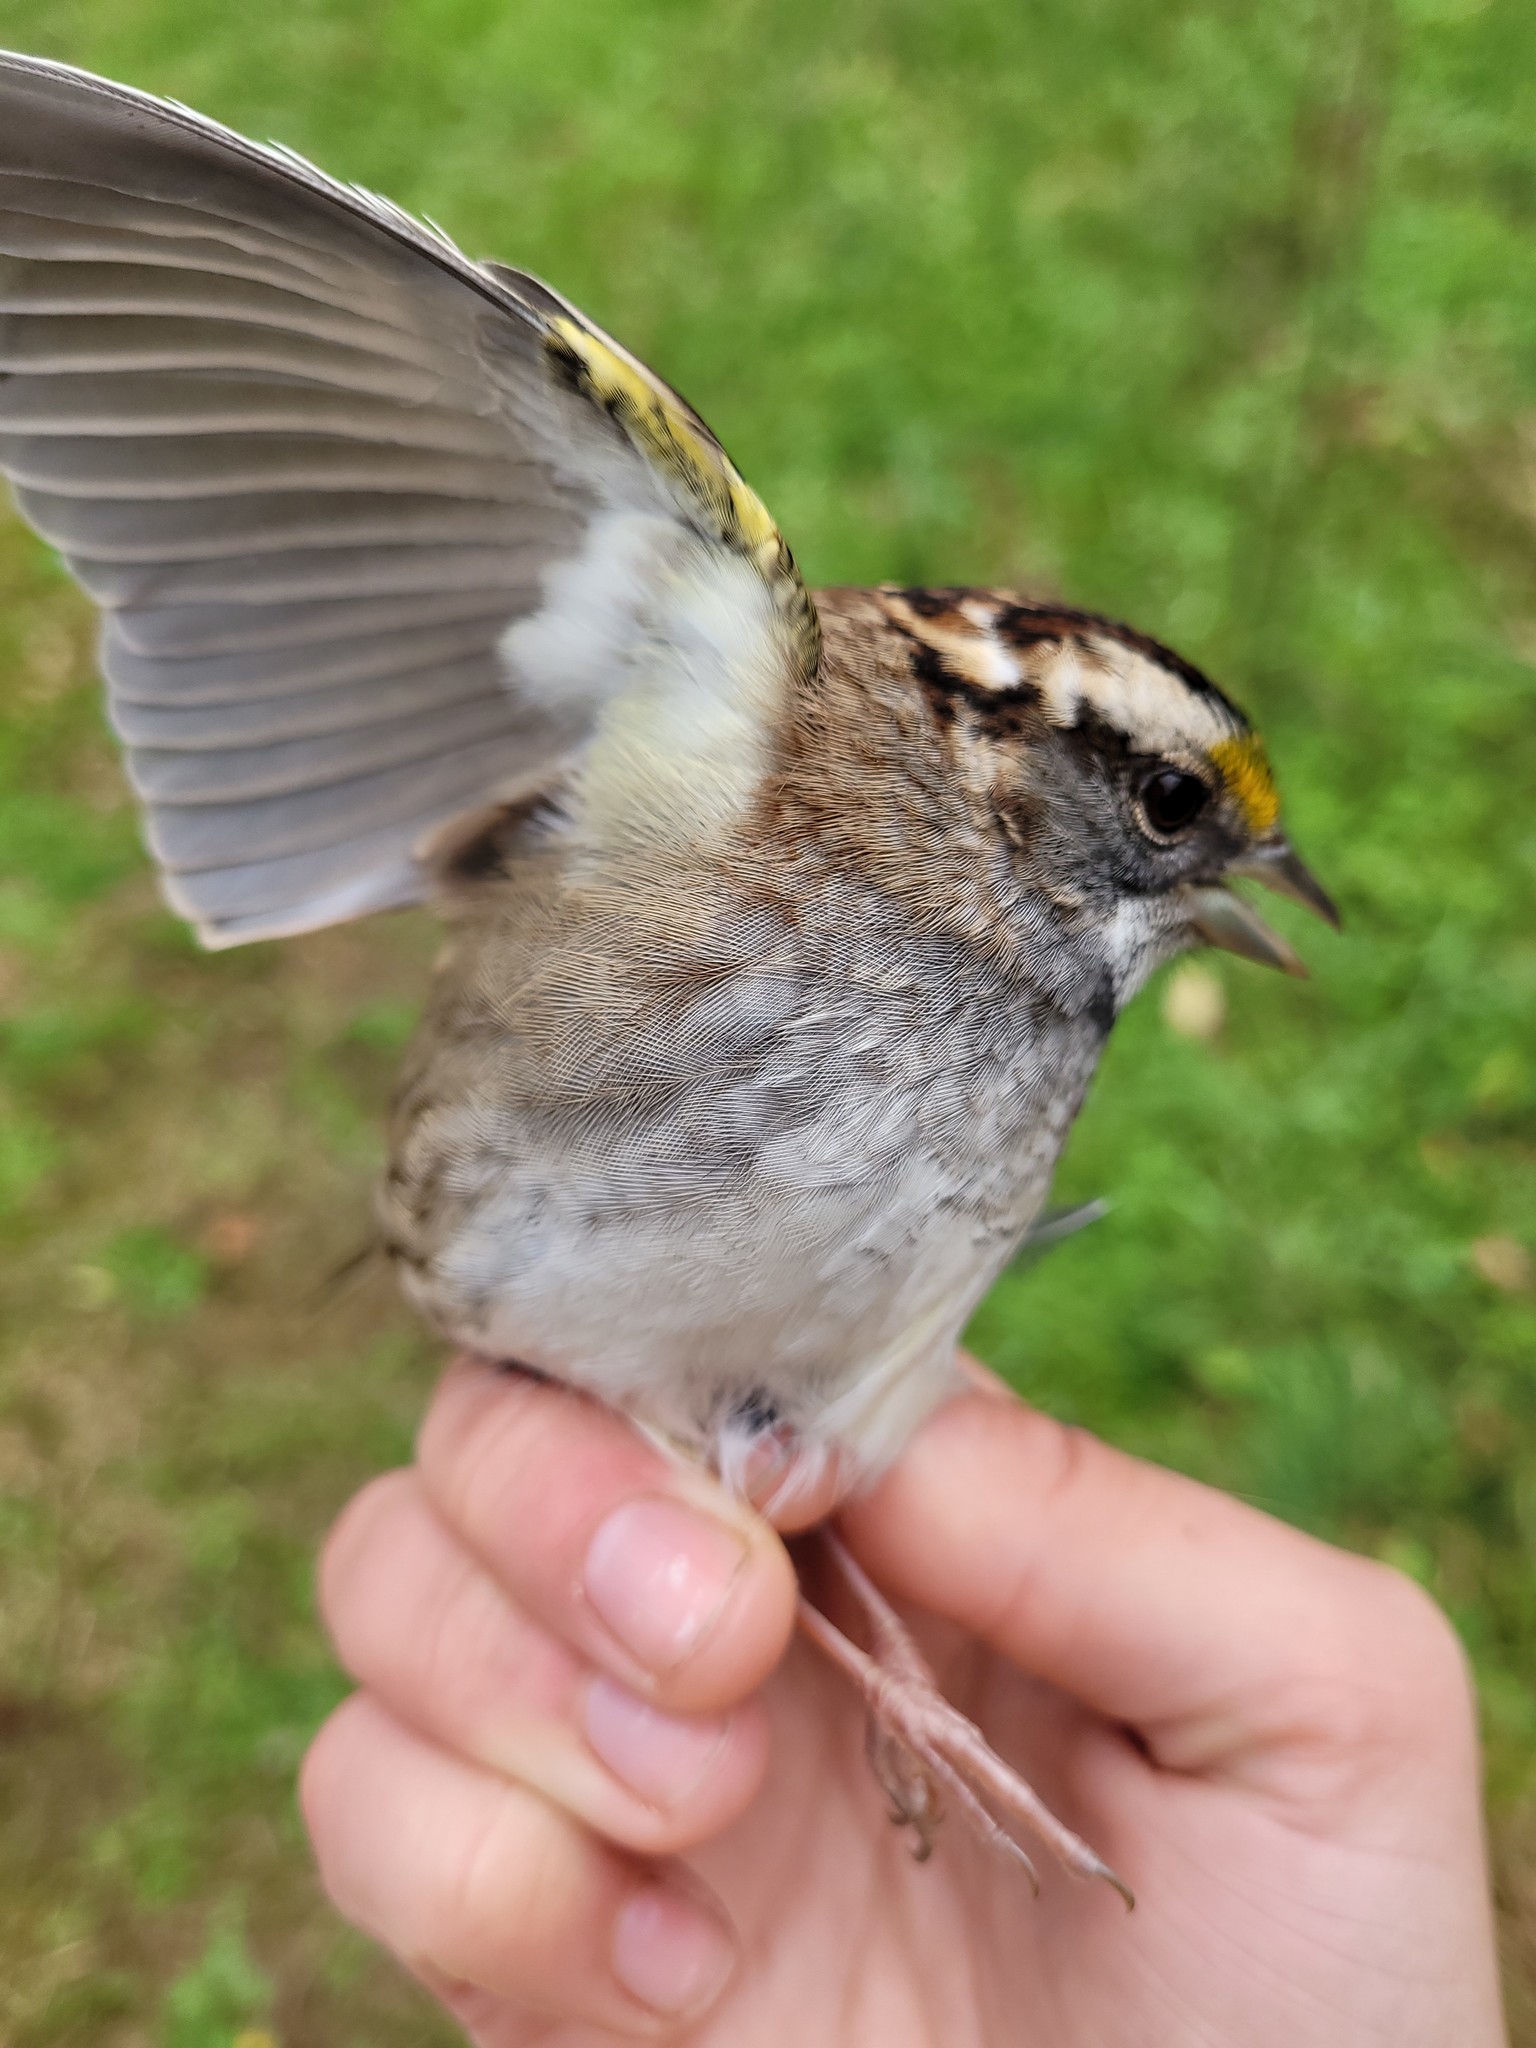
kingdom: Animalia
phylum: Chordata
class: Aves
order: Passeriformes
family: Passerellidae
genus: Zonotrichia
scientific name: Zonotrichia albicollis
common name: White-throated sparrow
